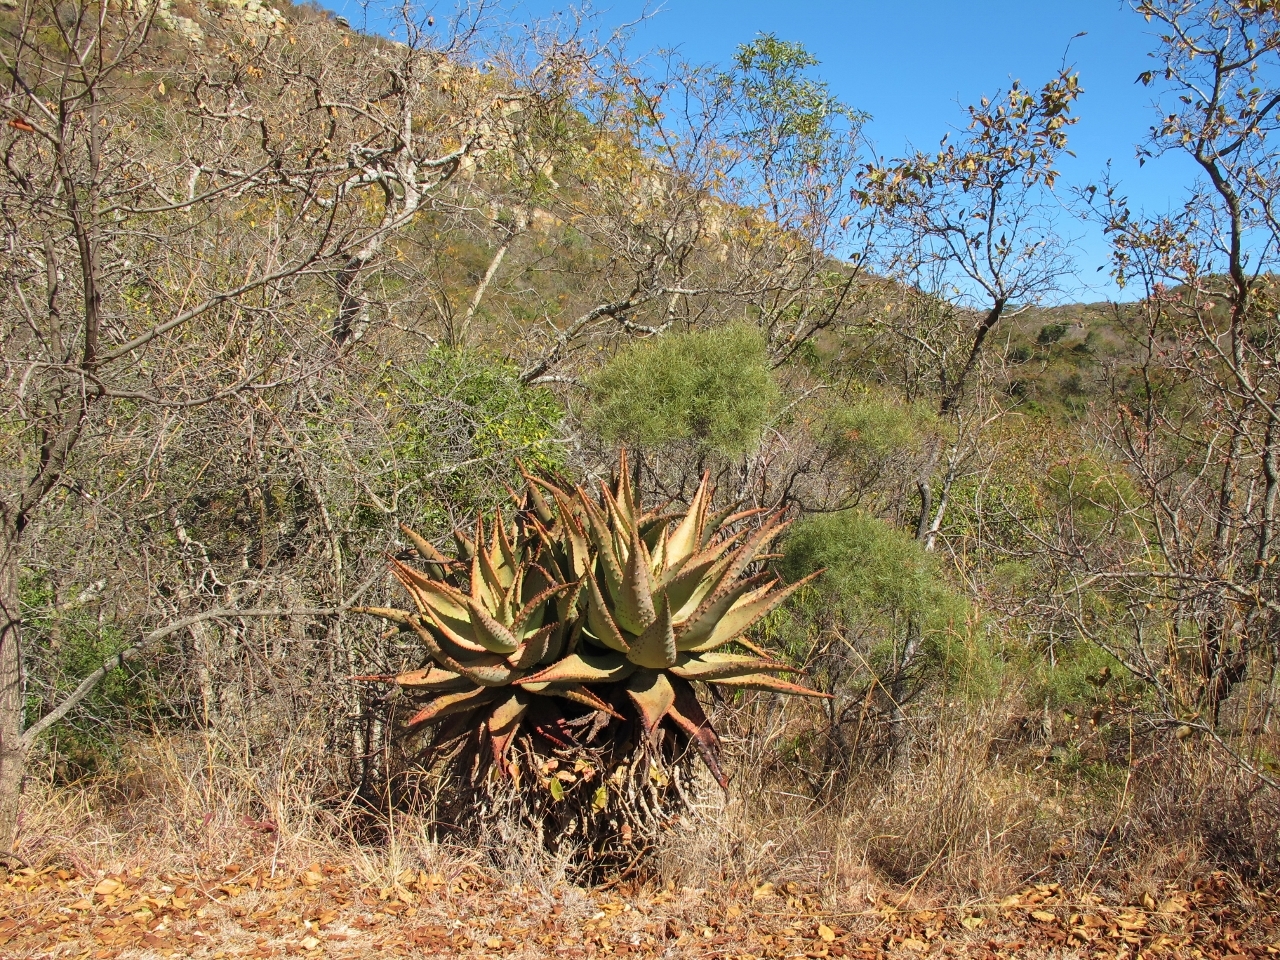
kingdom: Plantae
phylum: Tracheophyta
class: Liliopsida
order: Asparagales
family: Asphodelaceae
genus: Aloe
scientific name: Aloe marlothii
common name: Flat-flowered aloe
